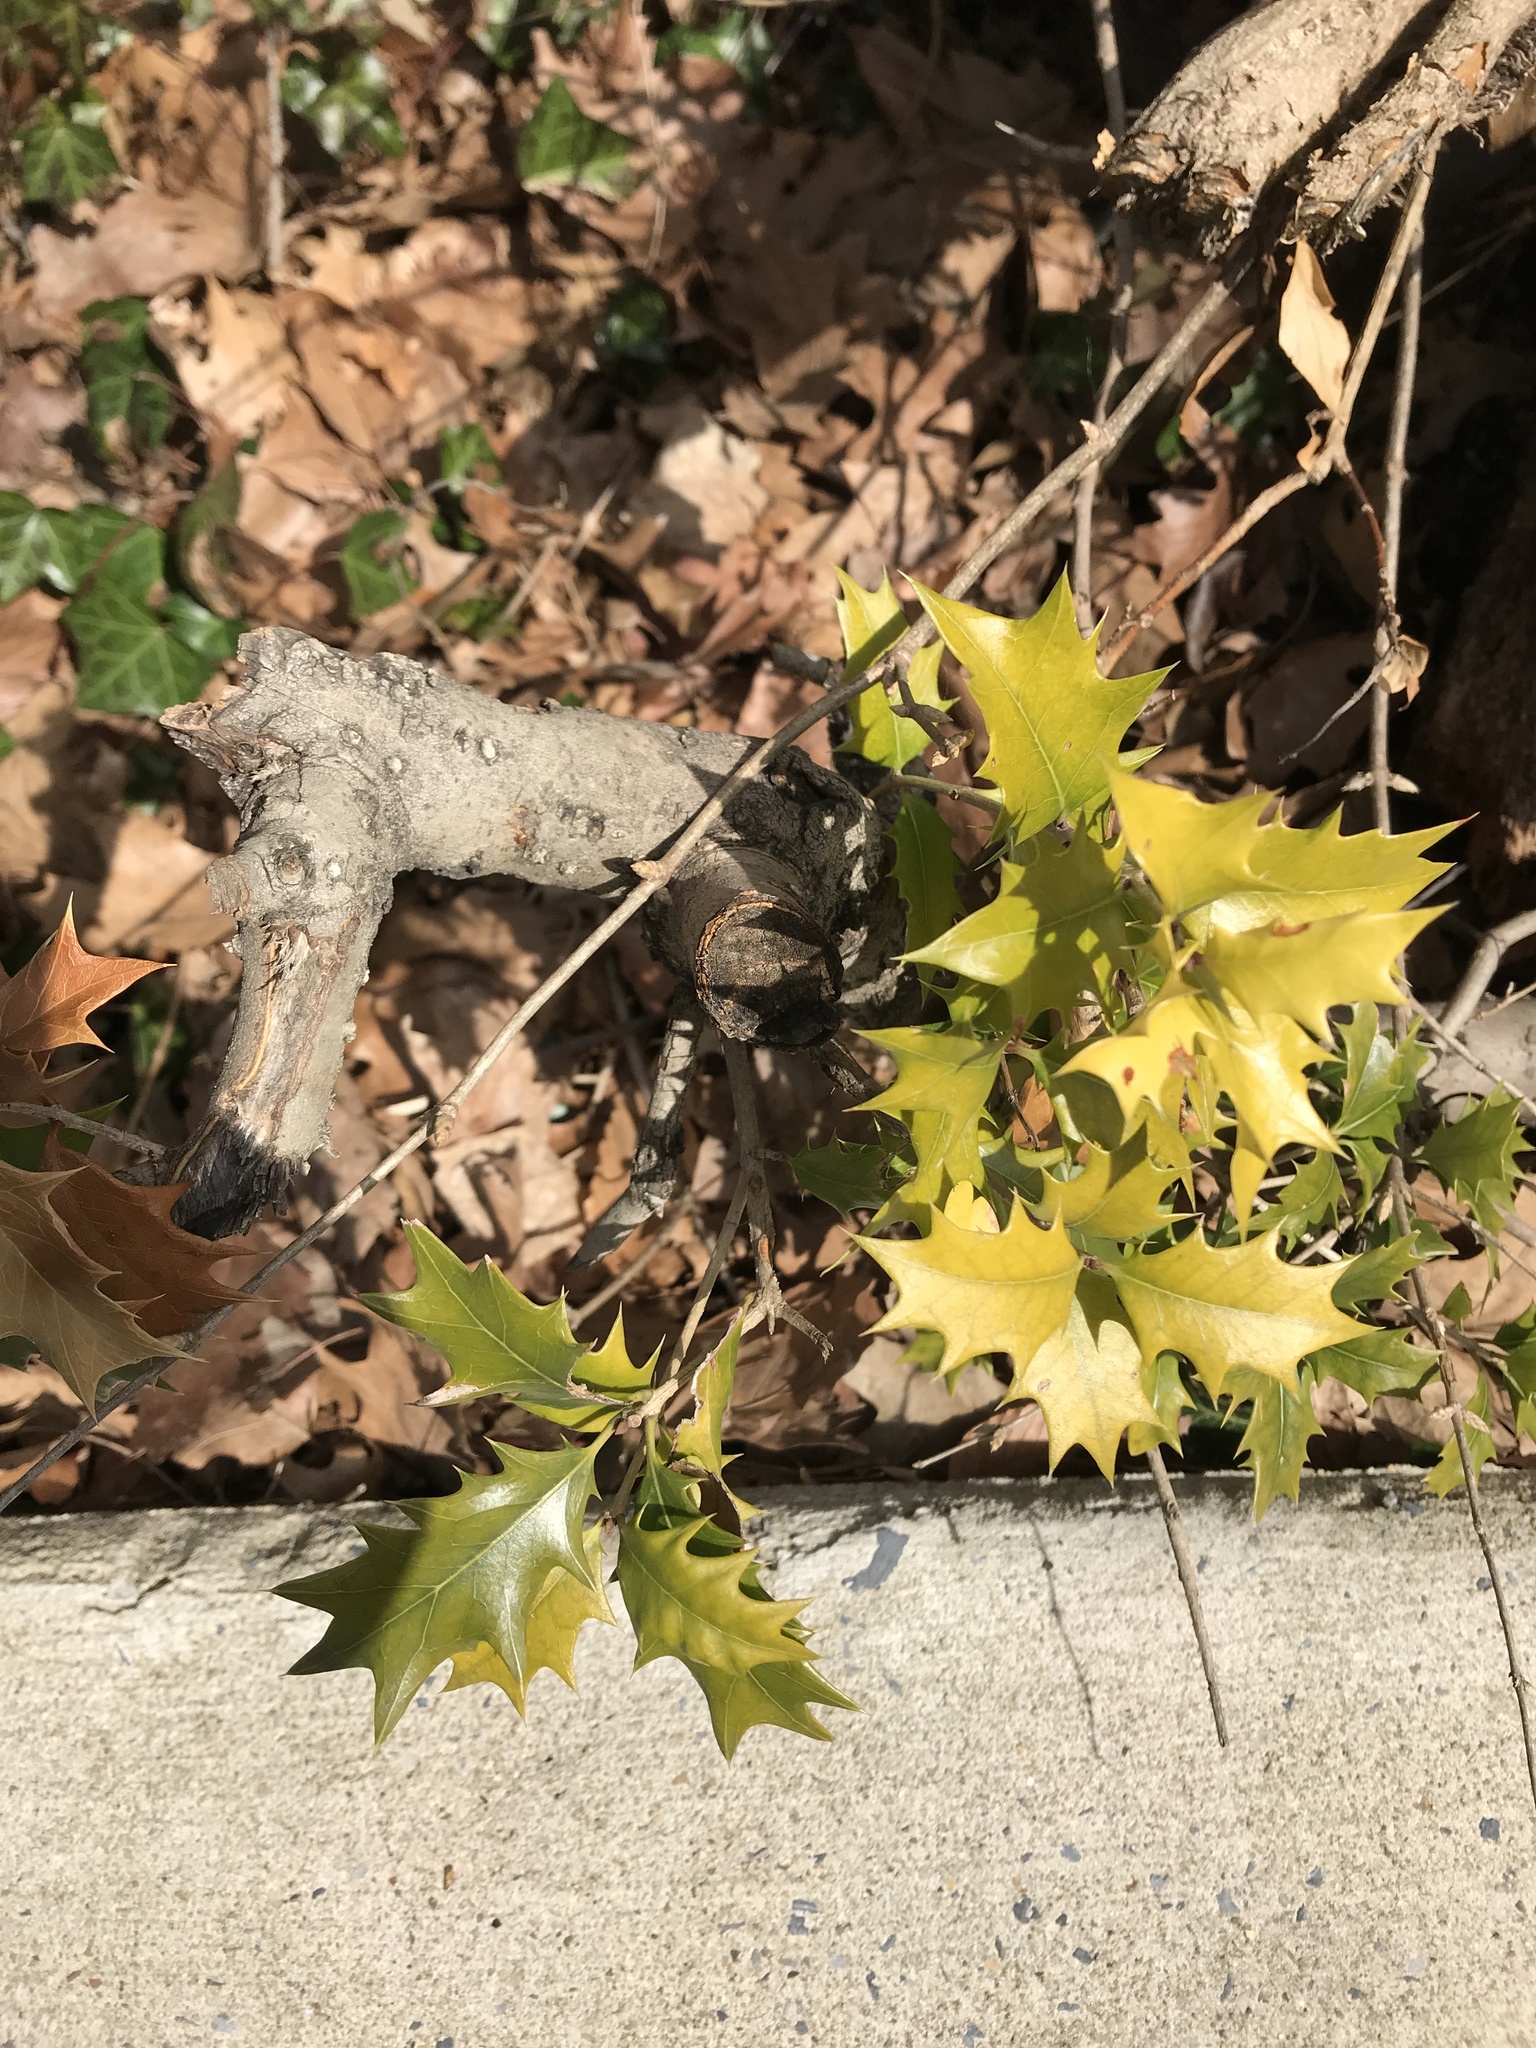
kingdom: Plantae
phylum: Tracheophyta
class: Magnoliopsida
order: Lamiales
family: Oleaceae
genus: Osmanthus
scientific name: Osmanthus heterophyllus
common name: Holly osmanthus
